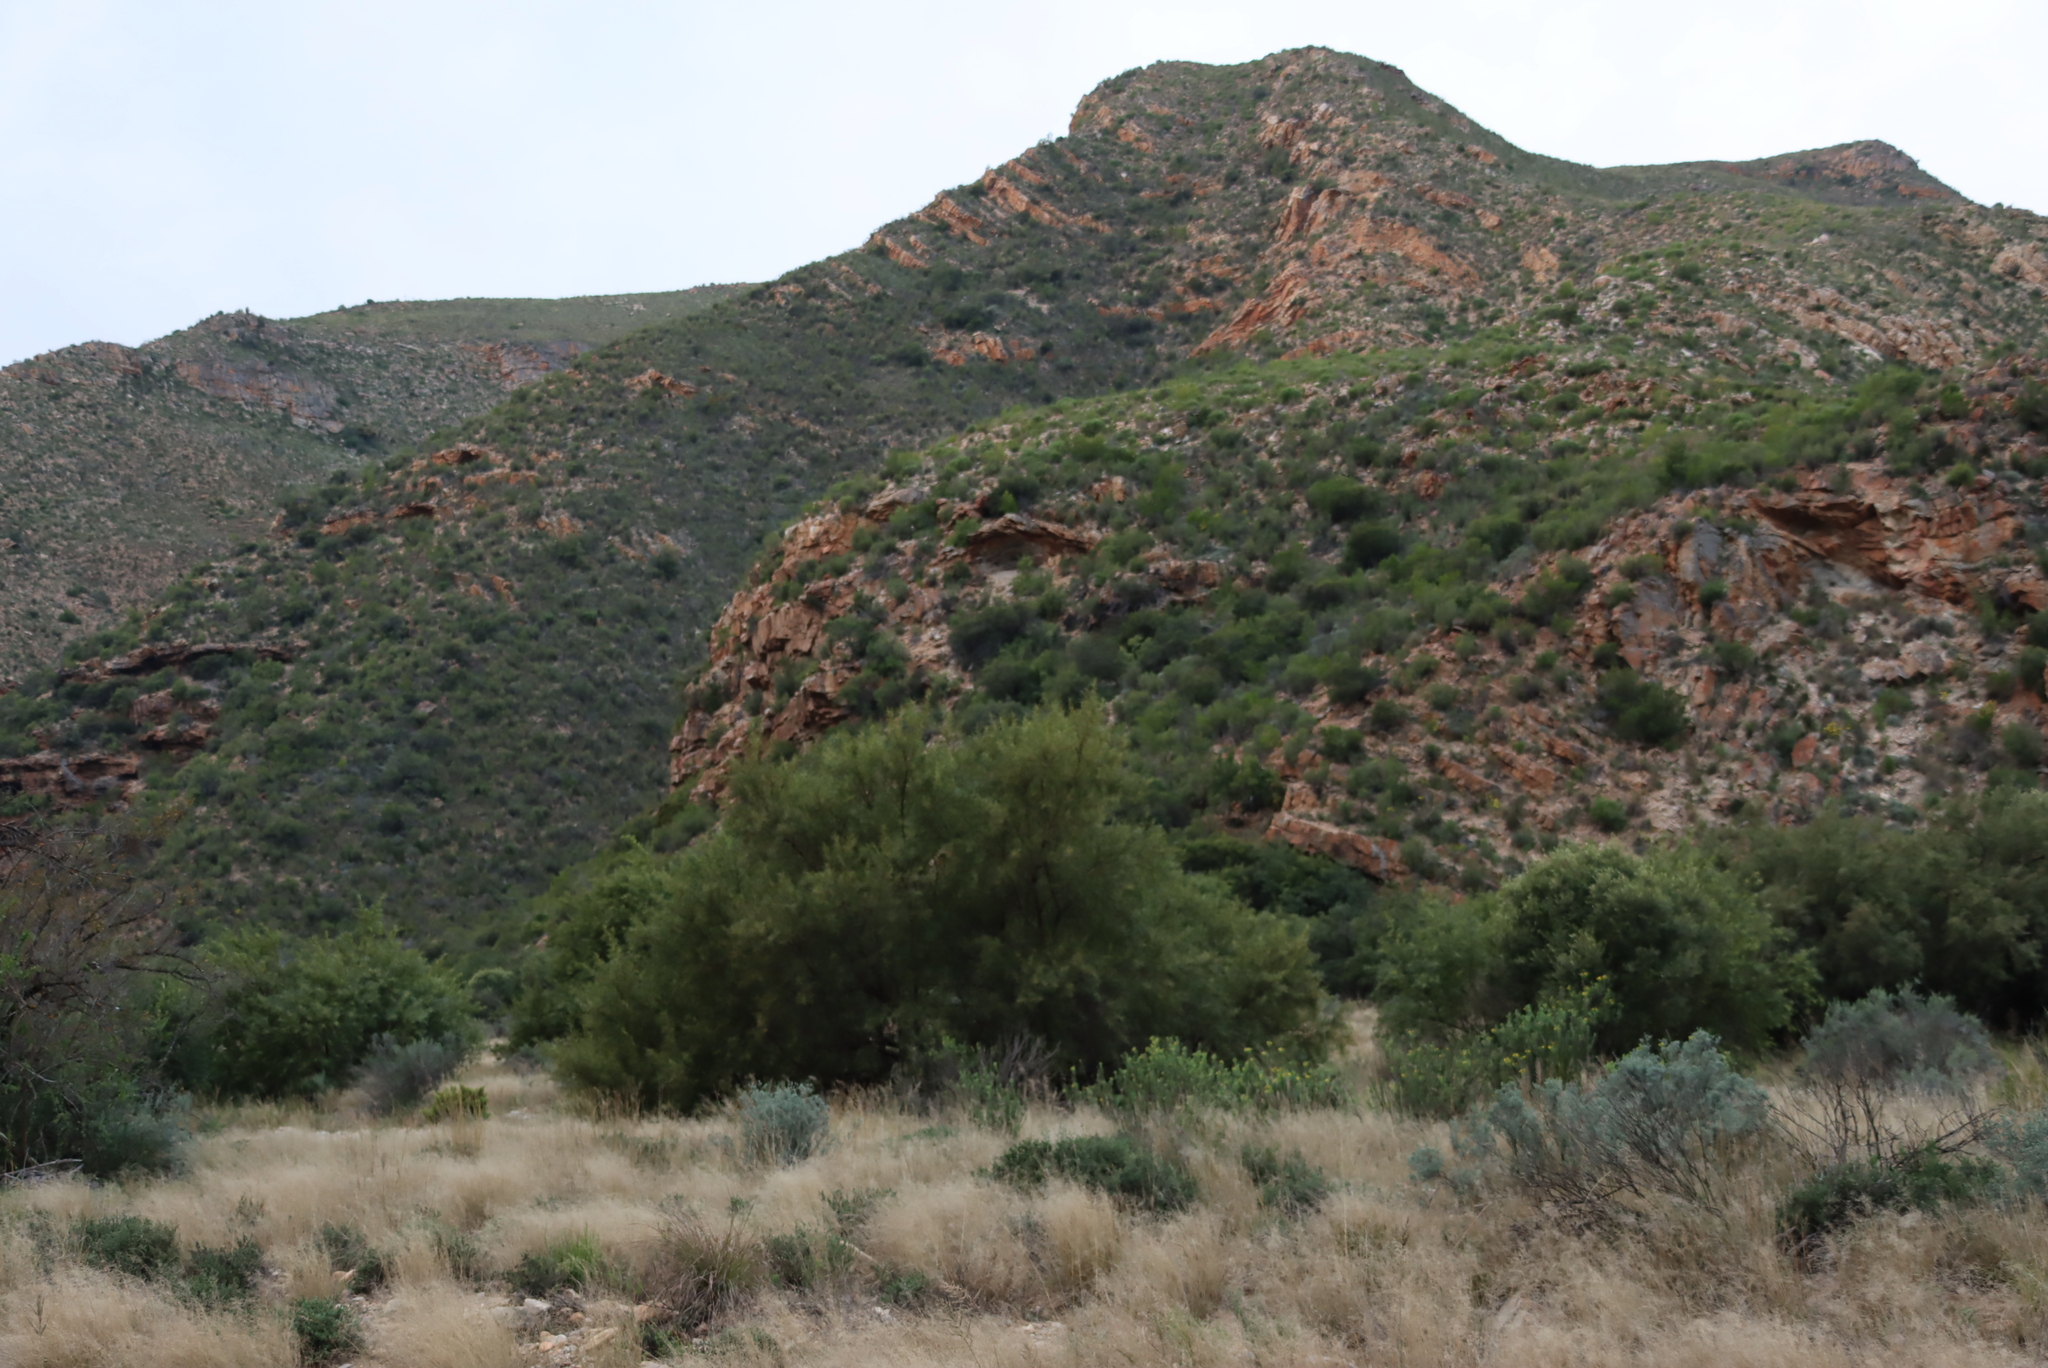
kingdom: Plantae
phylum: Tracheophyta
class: Magnoliopsida
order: Sapindales
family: Anacardiaceae
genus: Searsia
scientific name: Searsia lancea
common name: Cashew
